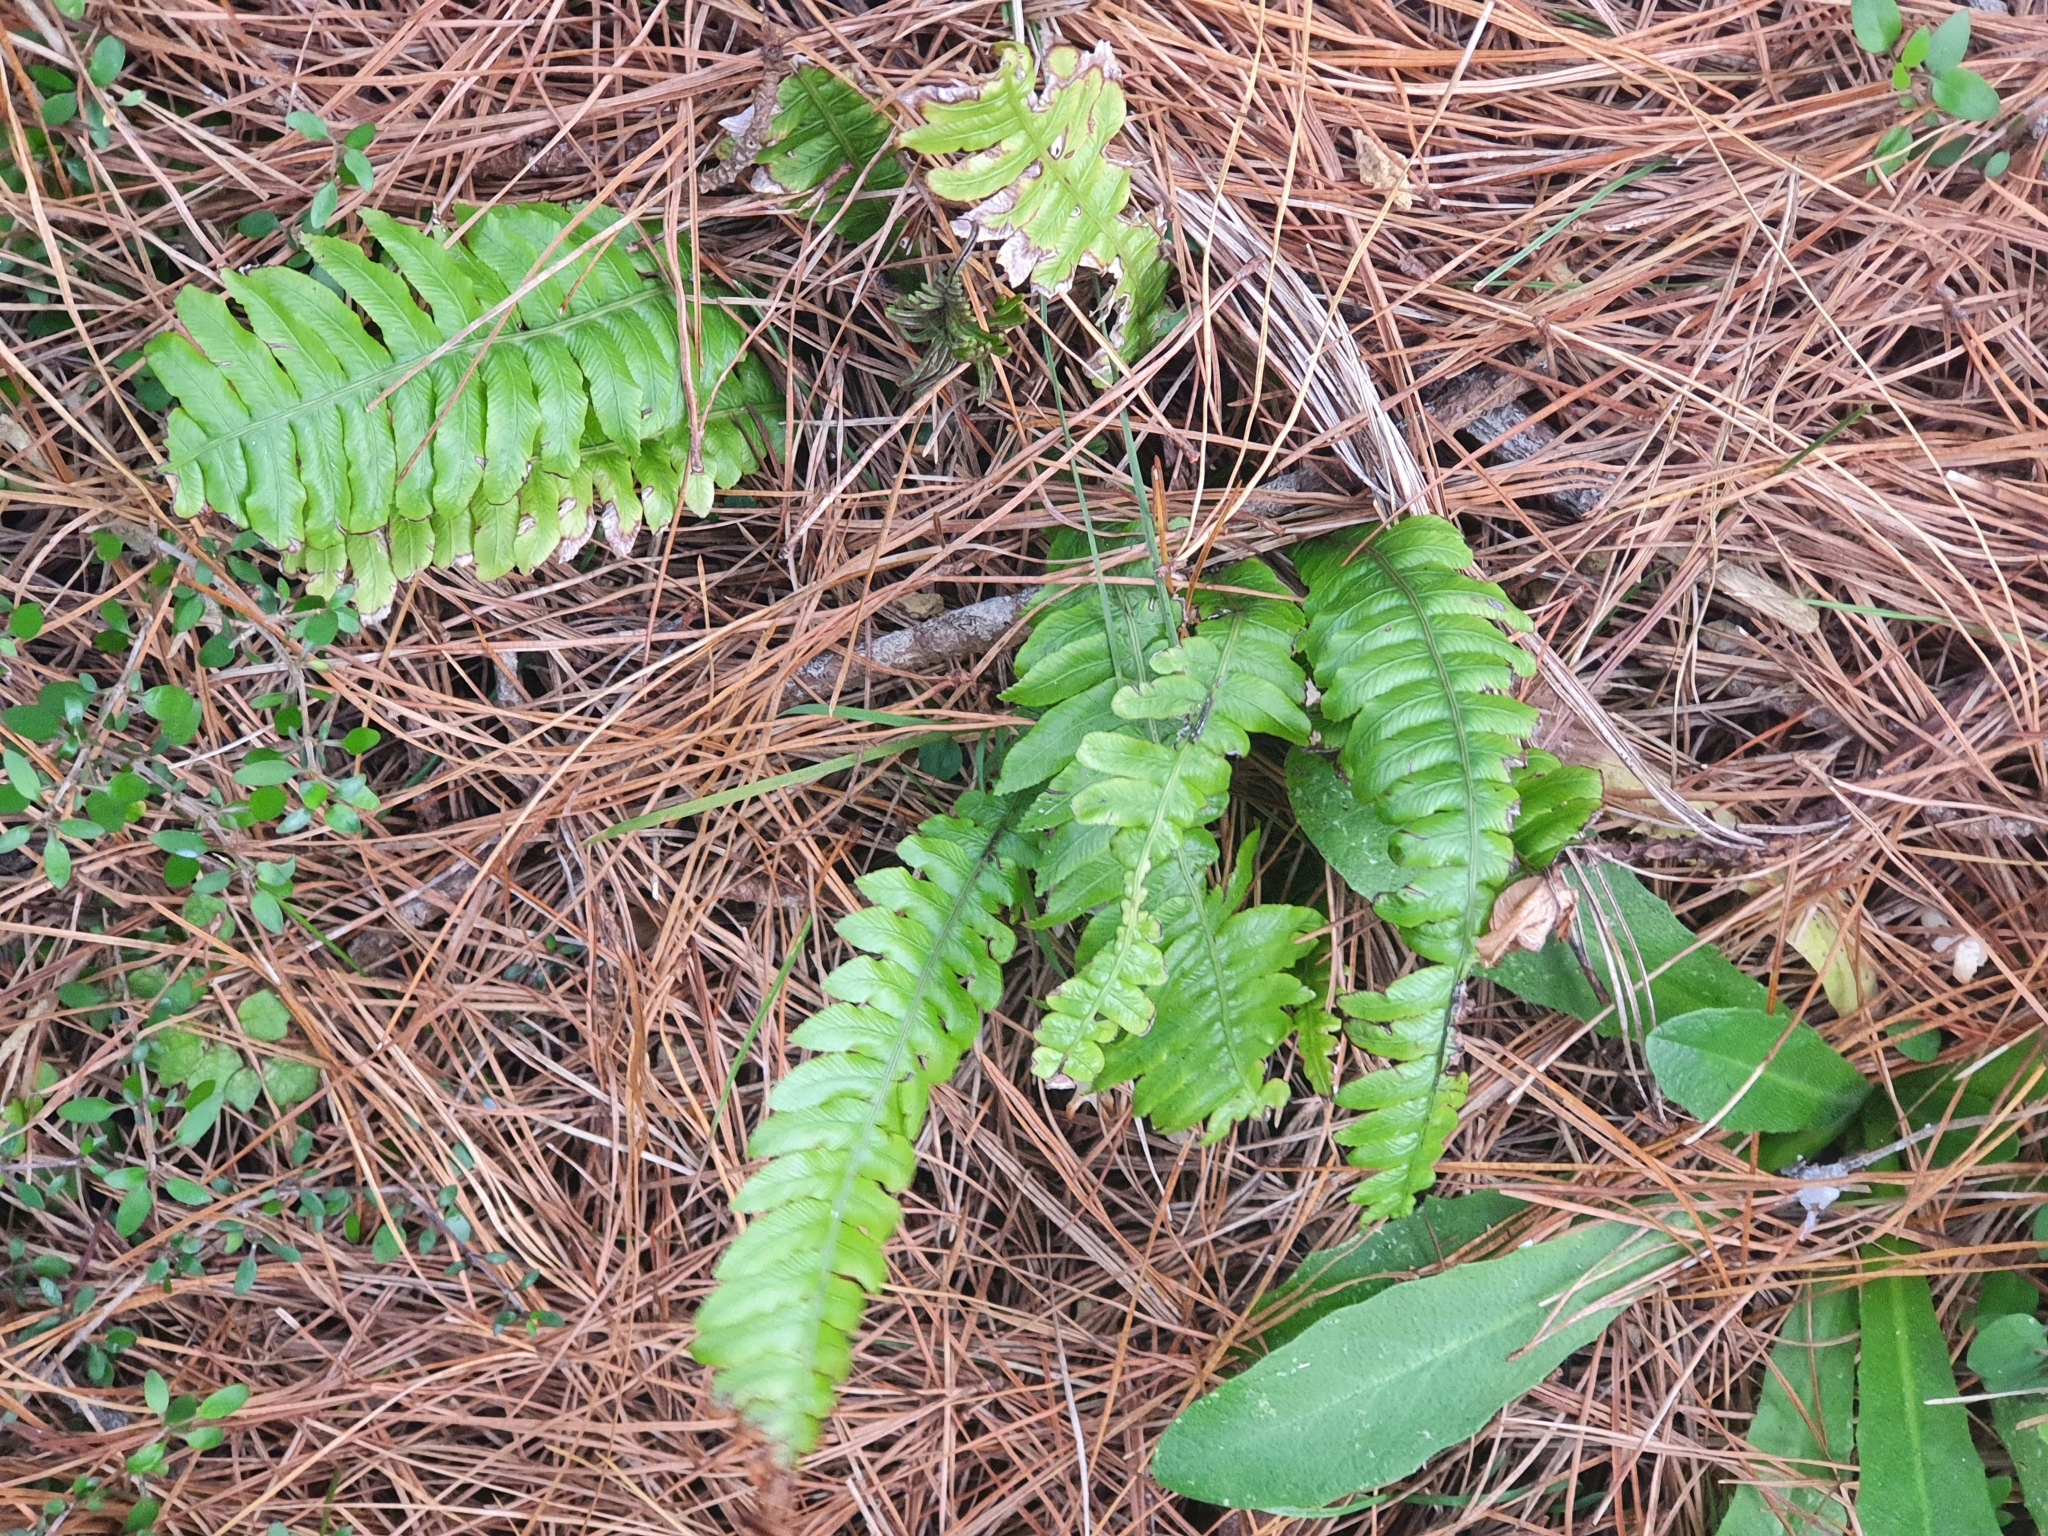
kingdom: Plantae
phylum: Tracheophyta
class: Polypodiopsida
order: Polypodiales
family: Blechnaceae
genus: Austroblechnum
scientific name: Austroblechnum lanceolatum
